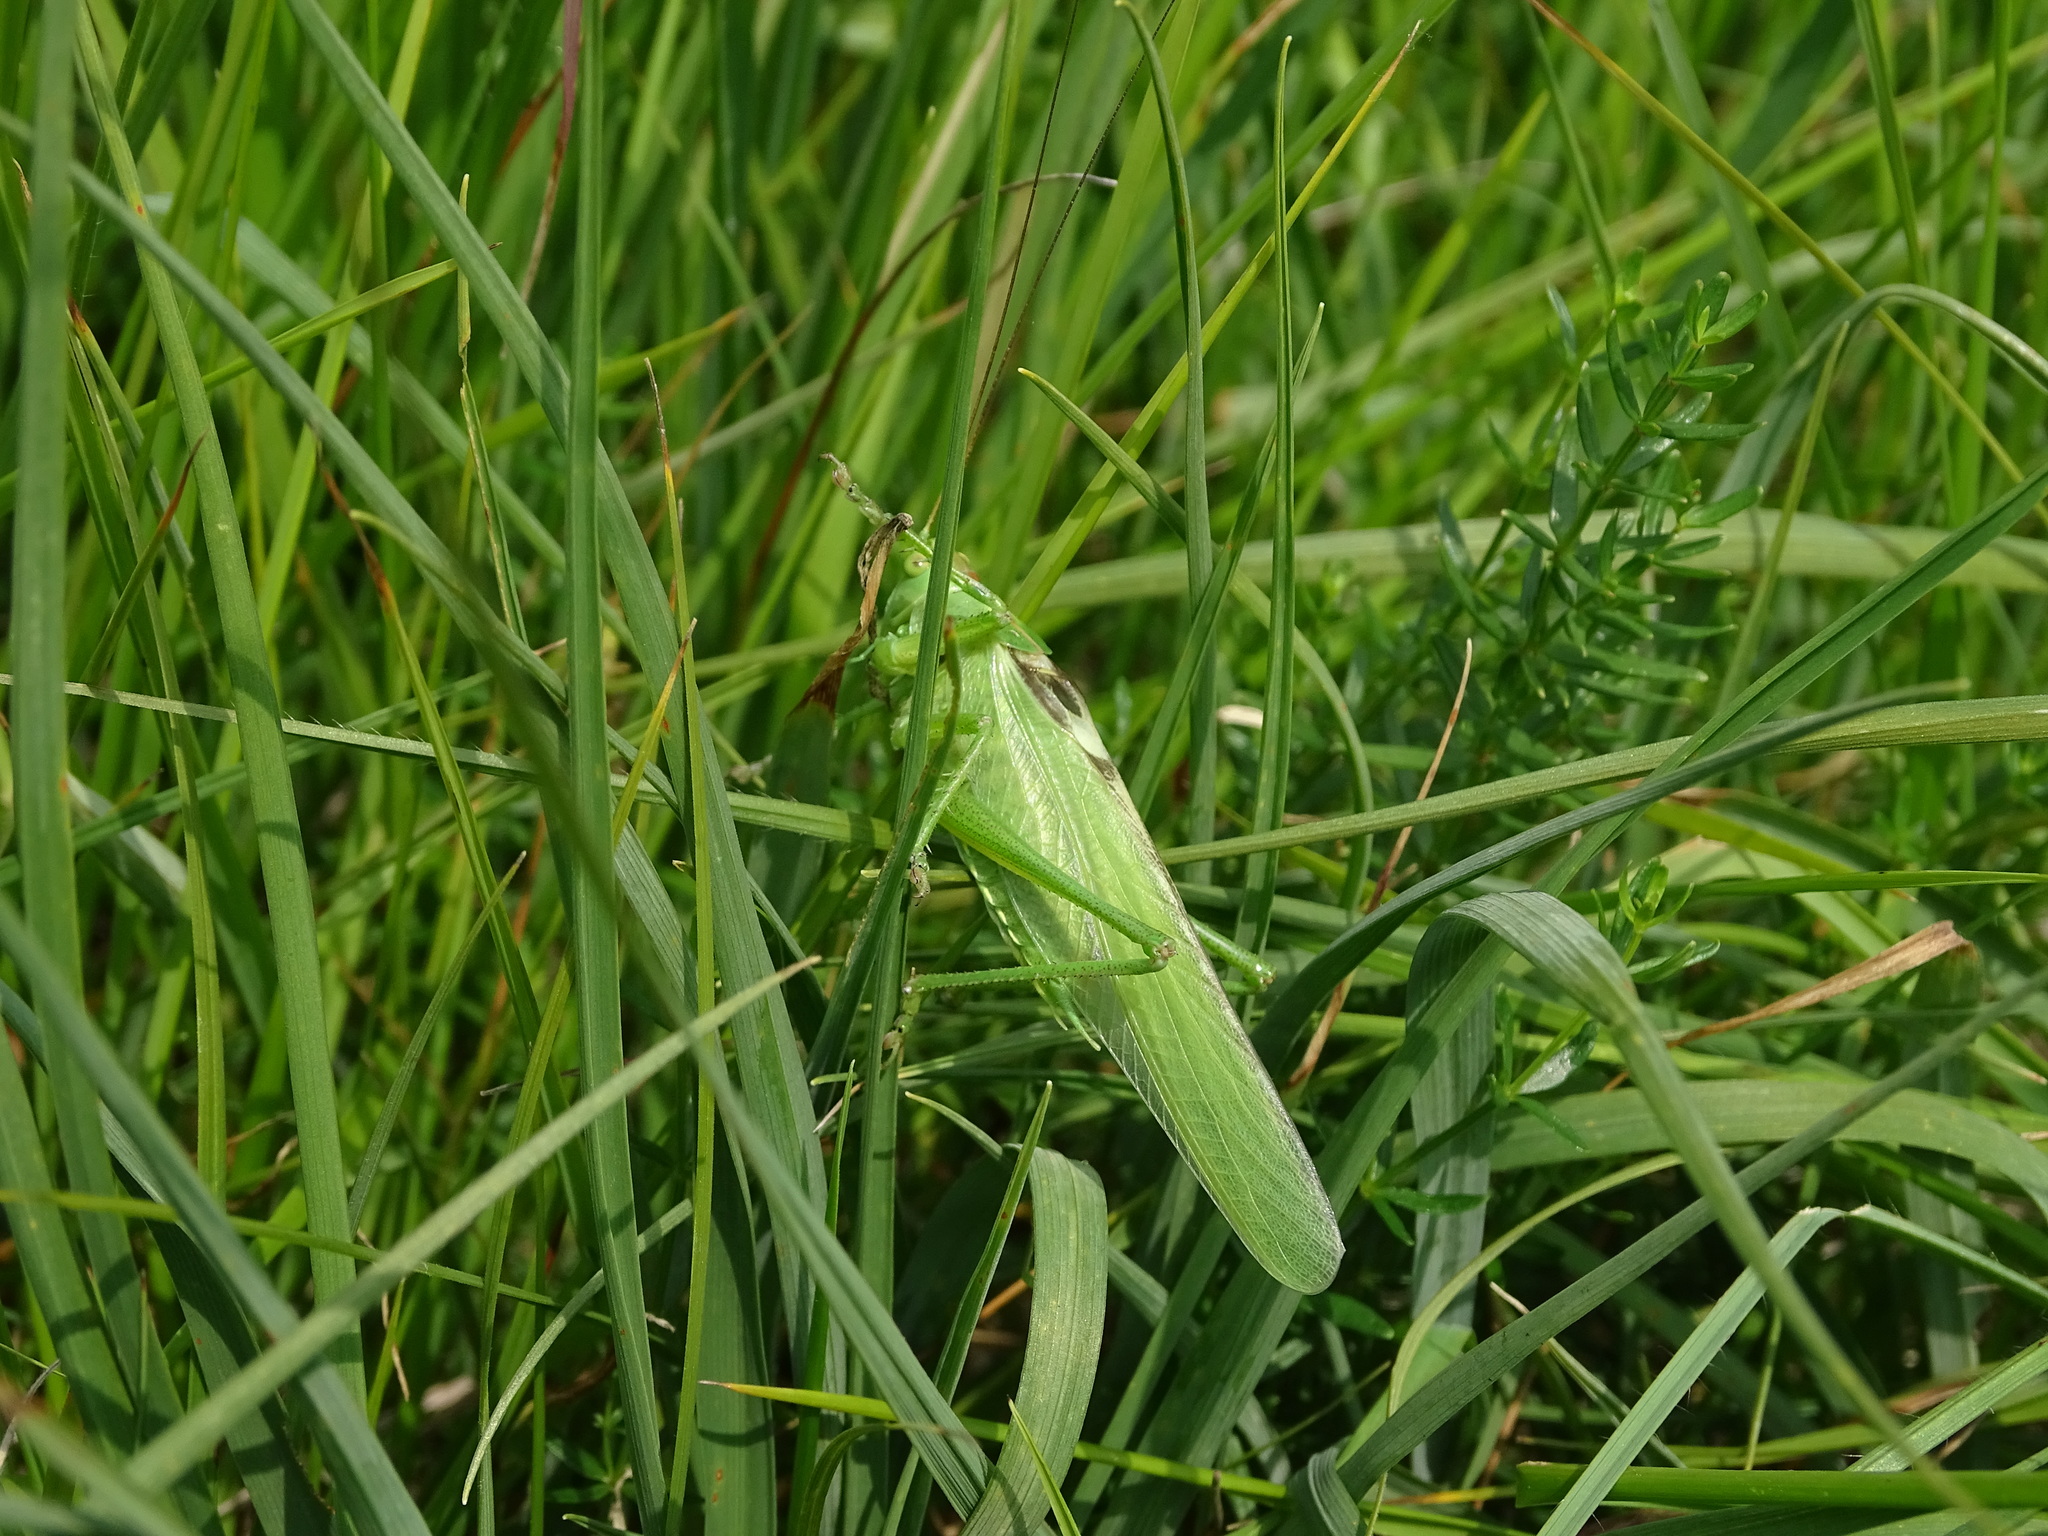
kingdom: Animalia
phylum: Arthropoda
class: Insecta
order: Orthoptera
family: Tettigoniidae
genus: Tettigonia
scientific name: Tettigonia viridissima
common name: Great green bush-cricket
